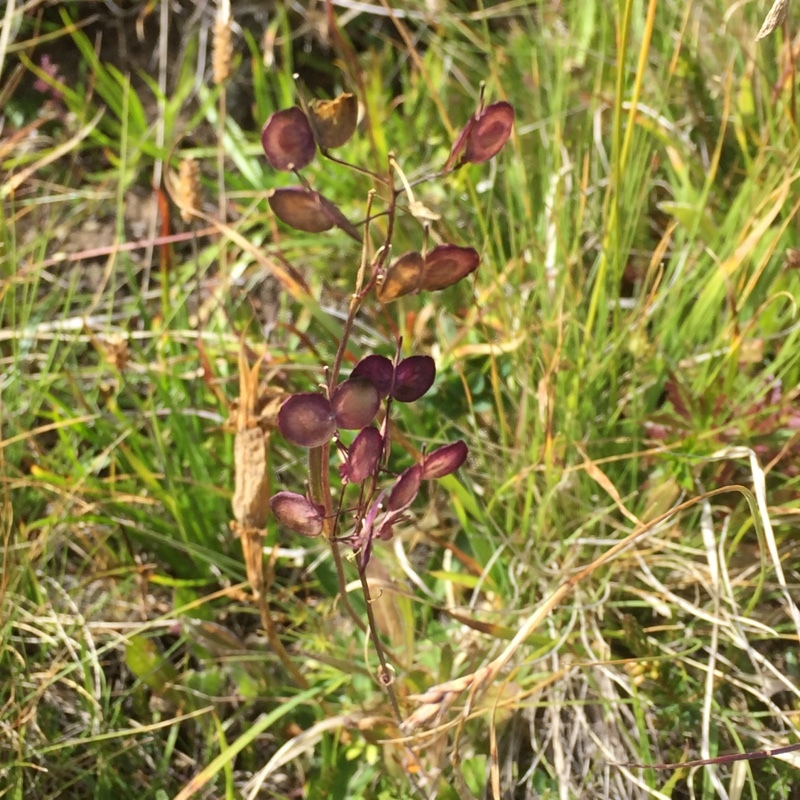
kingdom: Plantae
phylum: Tracheophyta
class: Magnoliopsida
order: Brassicales
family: Brassicaceae
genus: Biscutella
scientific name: Biscutella laevigata
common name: Buckler mustard
